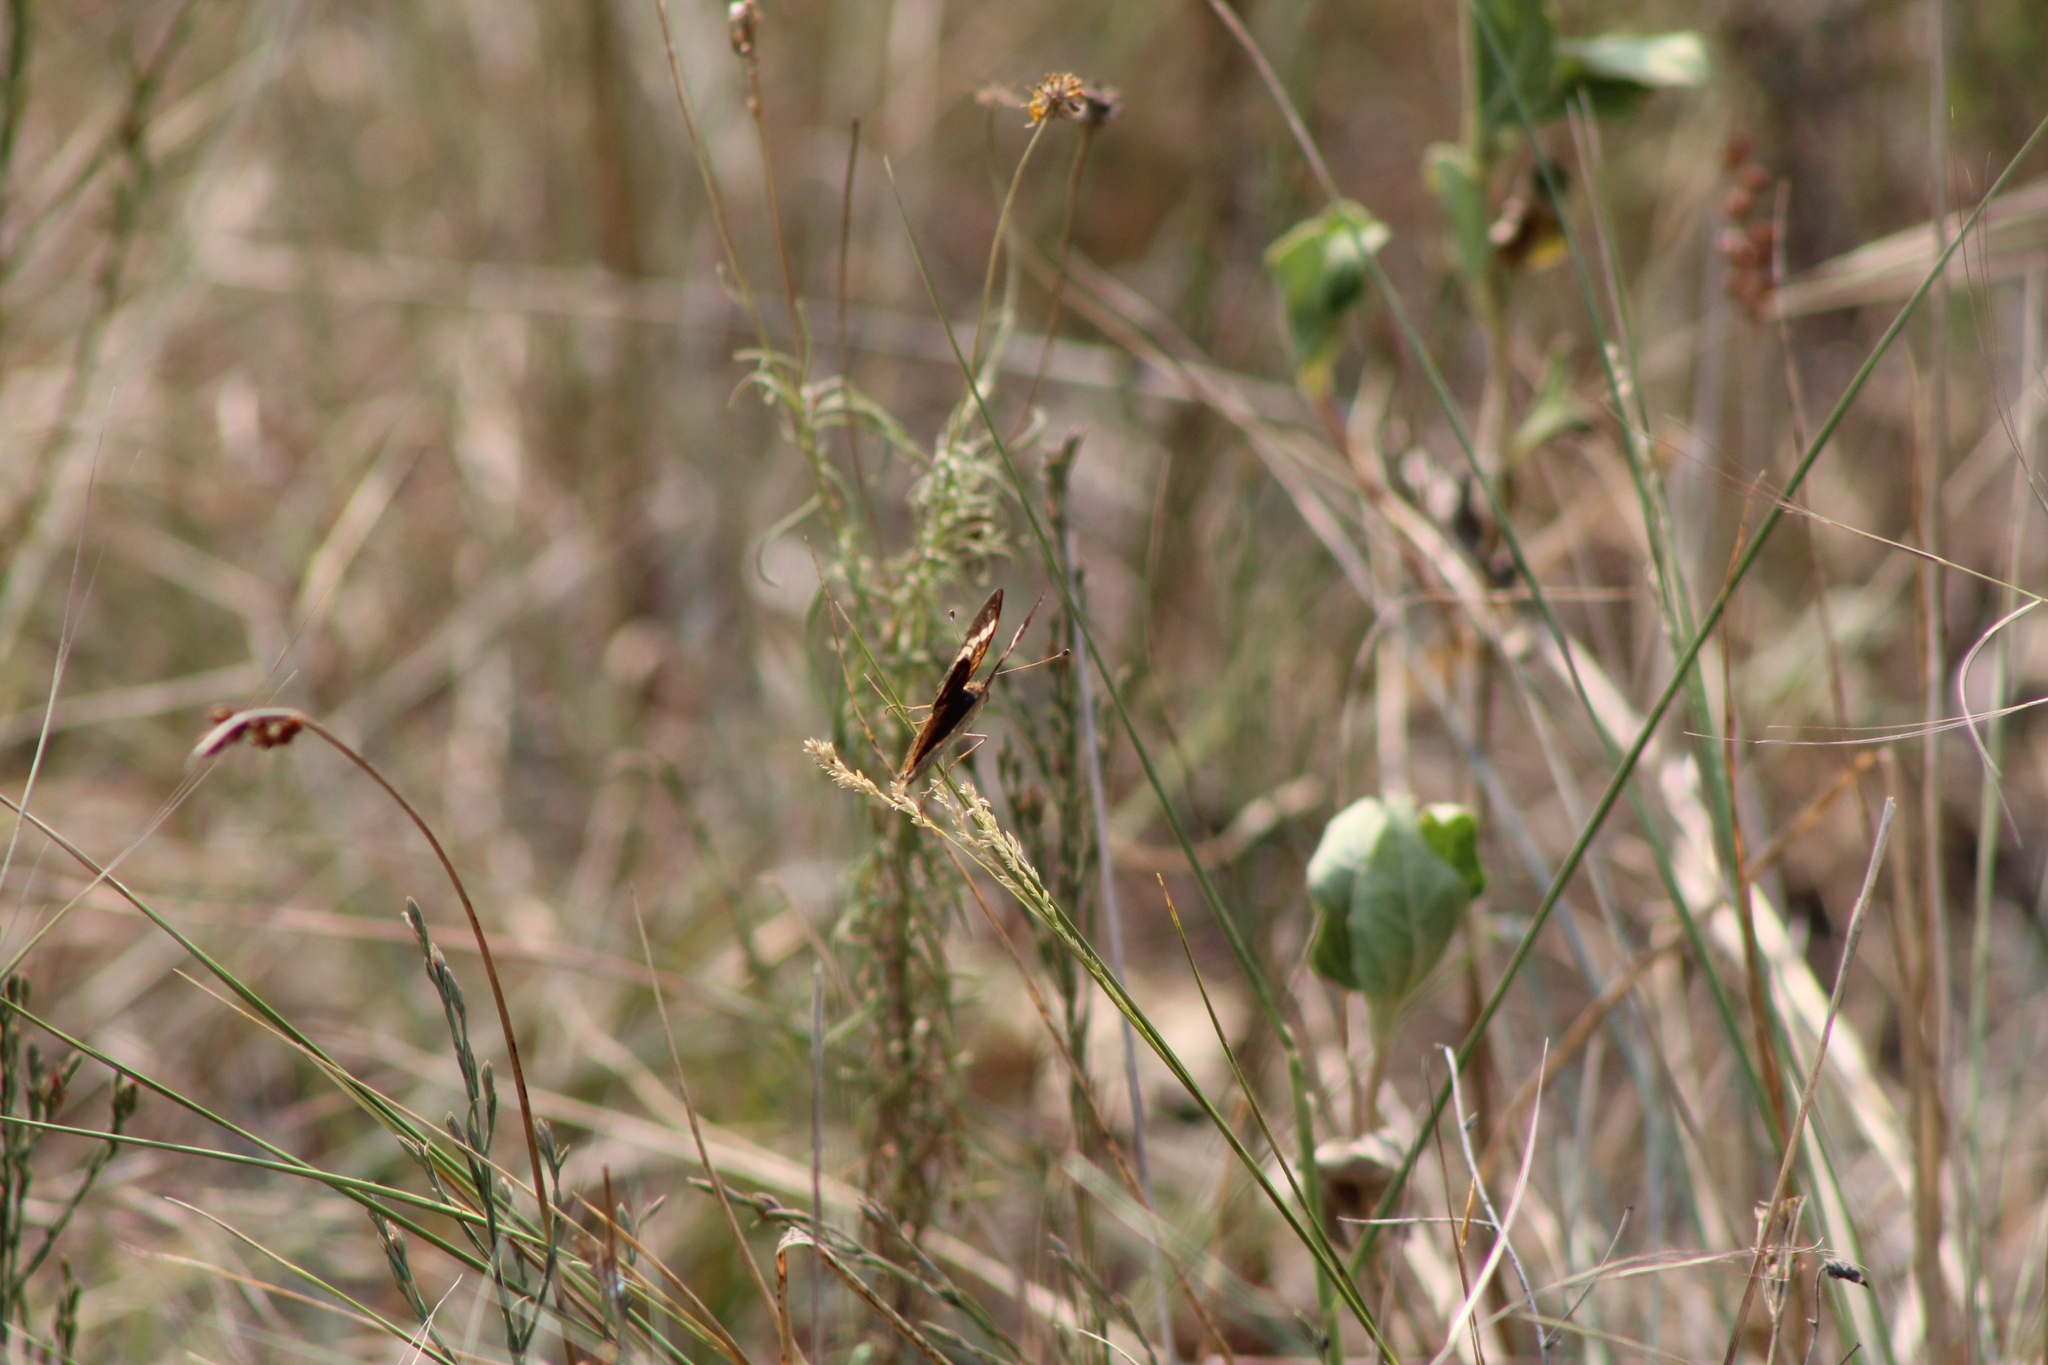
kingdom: Animalia
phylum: Arthropoda
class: Insecta
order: Lepidoptera
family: Nymphalidae
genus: Junonia
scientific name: Junonia coenia
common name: Common buckeye
